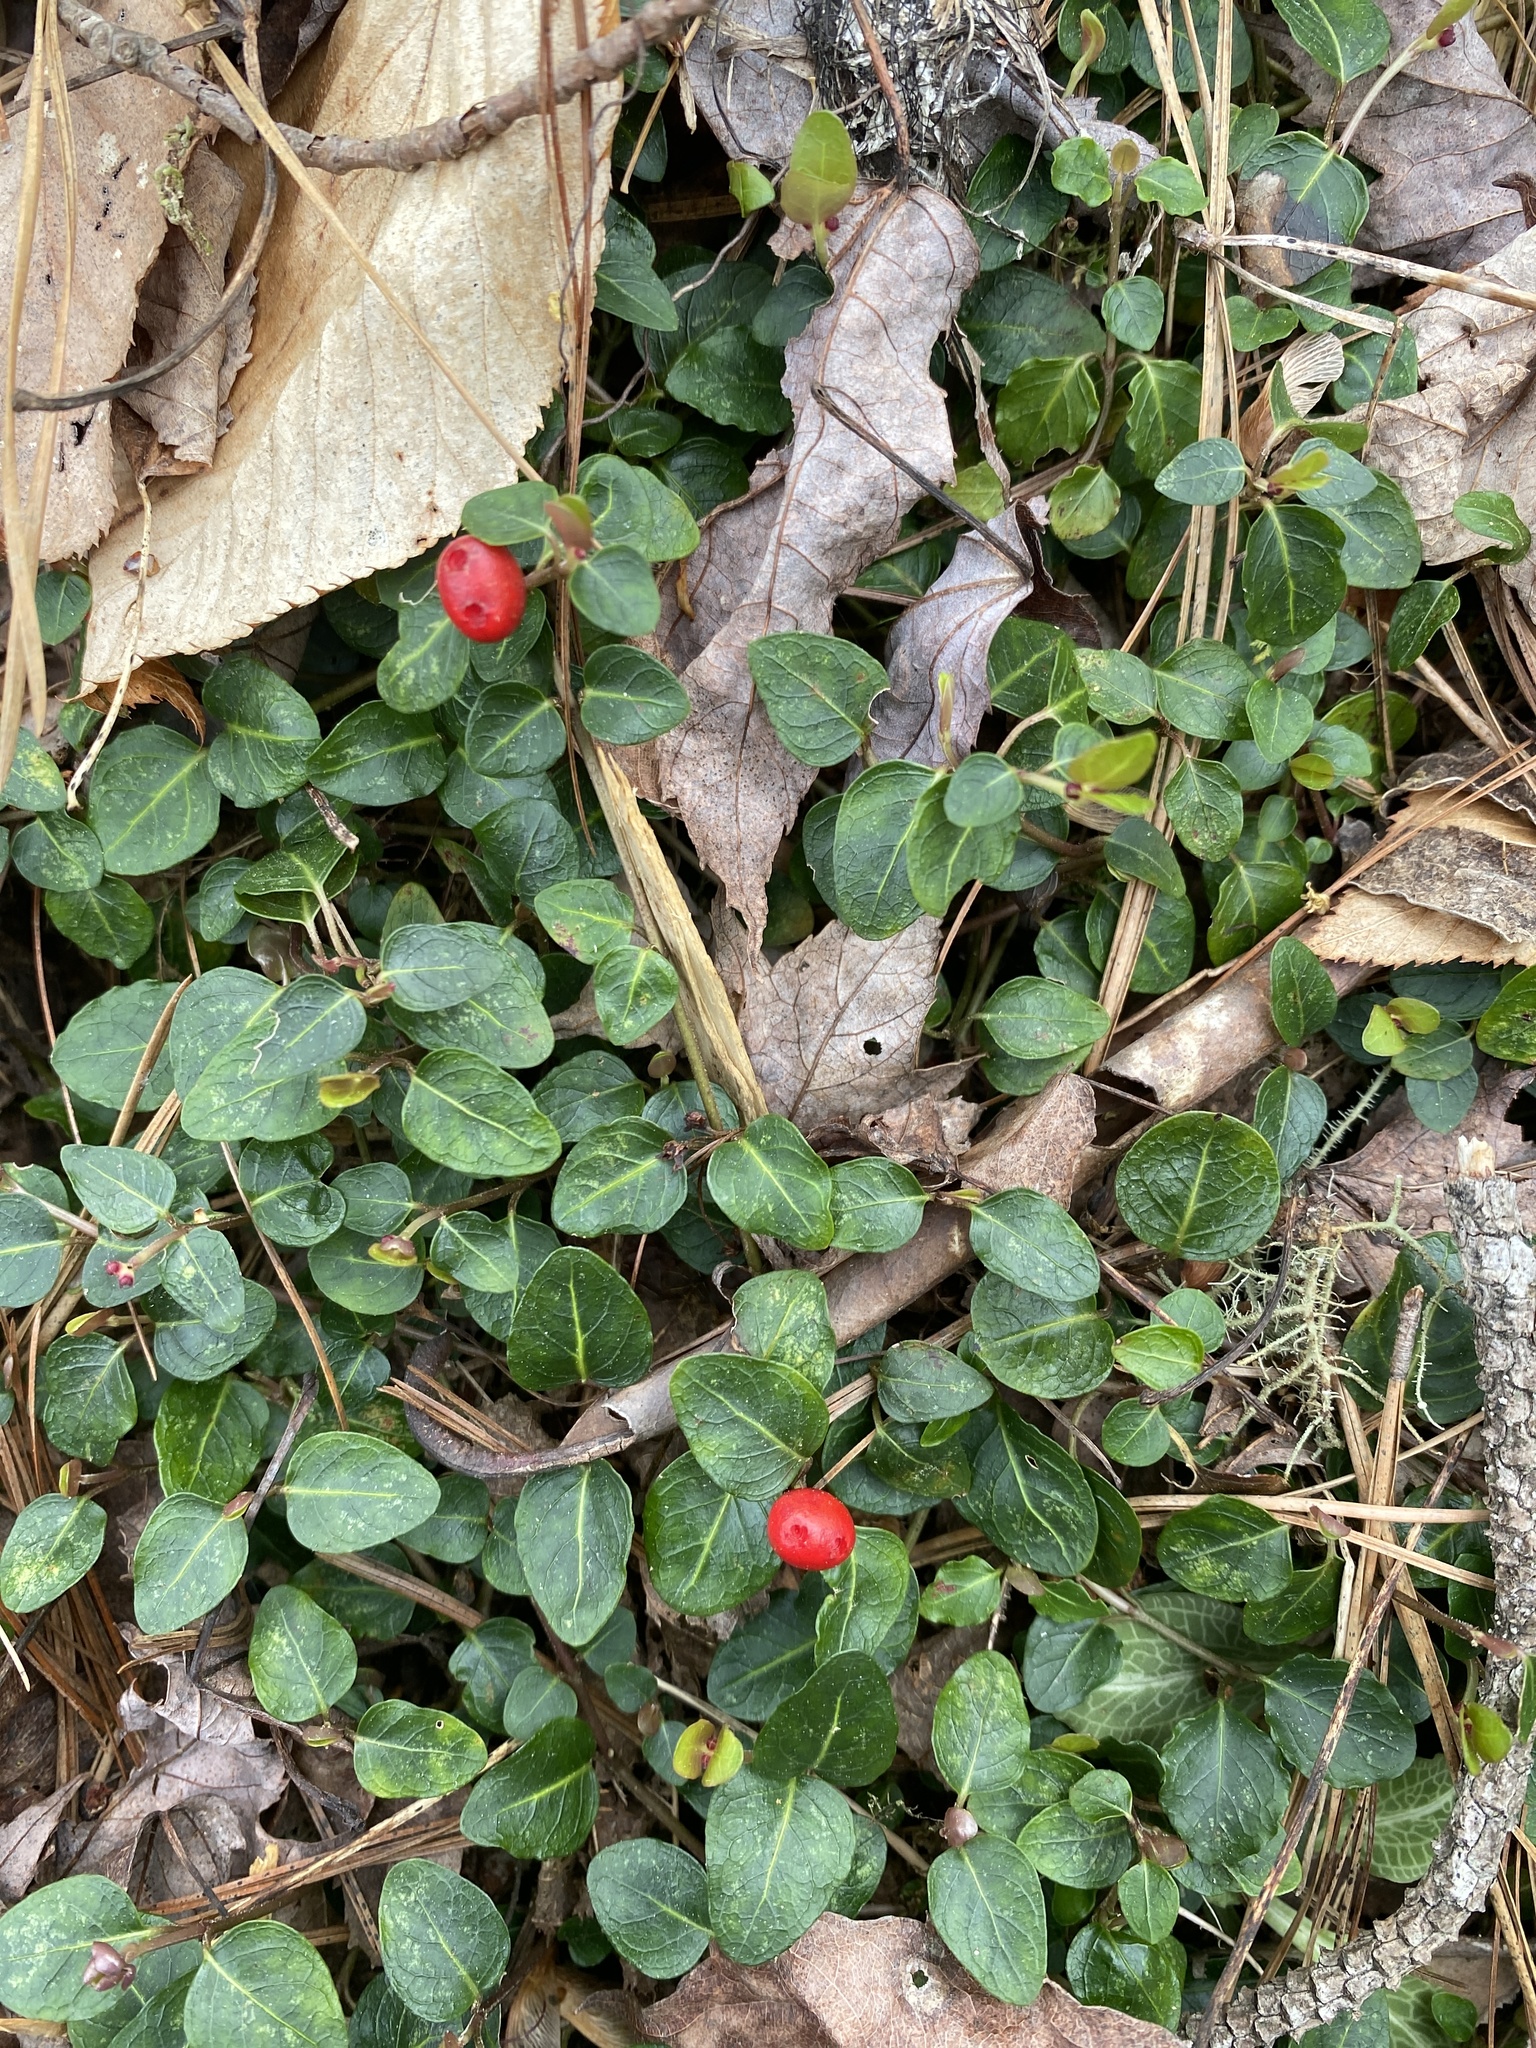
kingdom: Plantae
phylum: Tracheophyta
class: Magnoliopsida
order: Gentianales
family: Rubiaceae
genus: Mitchella
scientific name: Mitchella repens
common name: Partridge-berry
